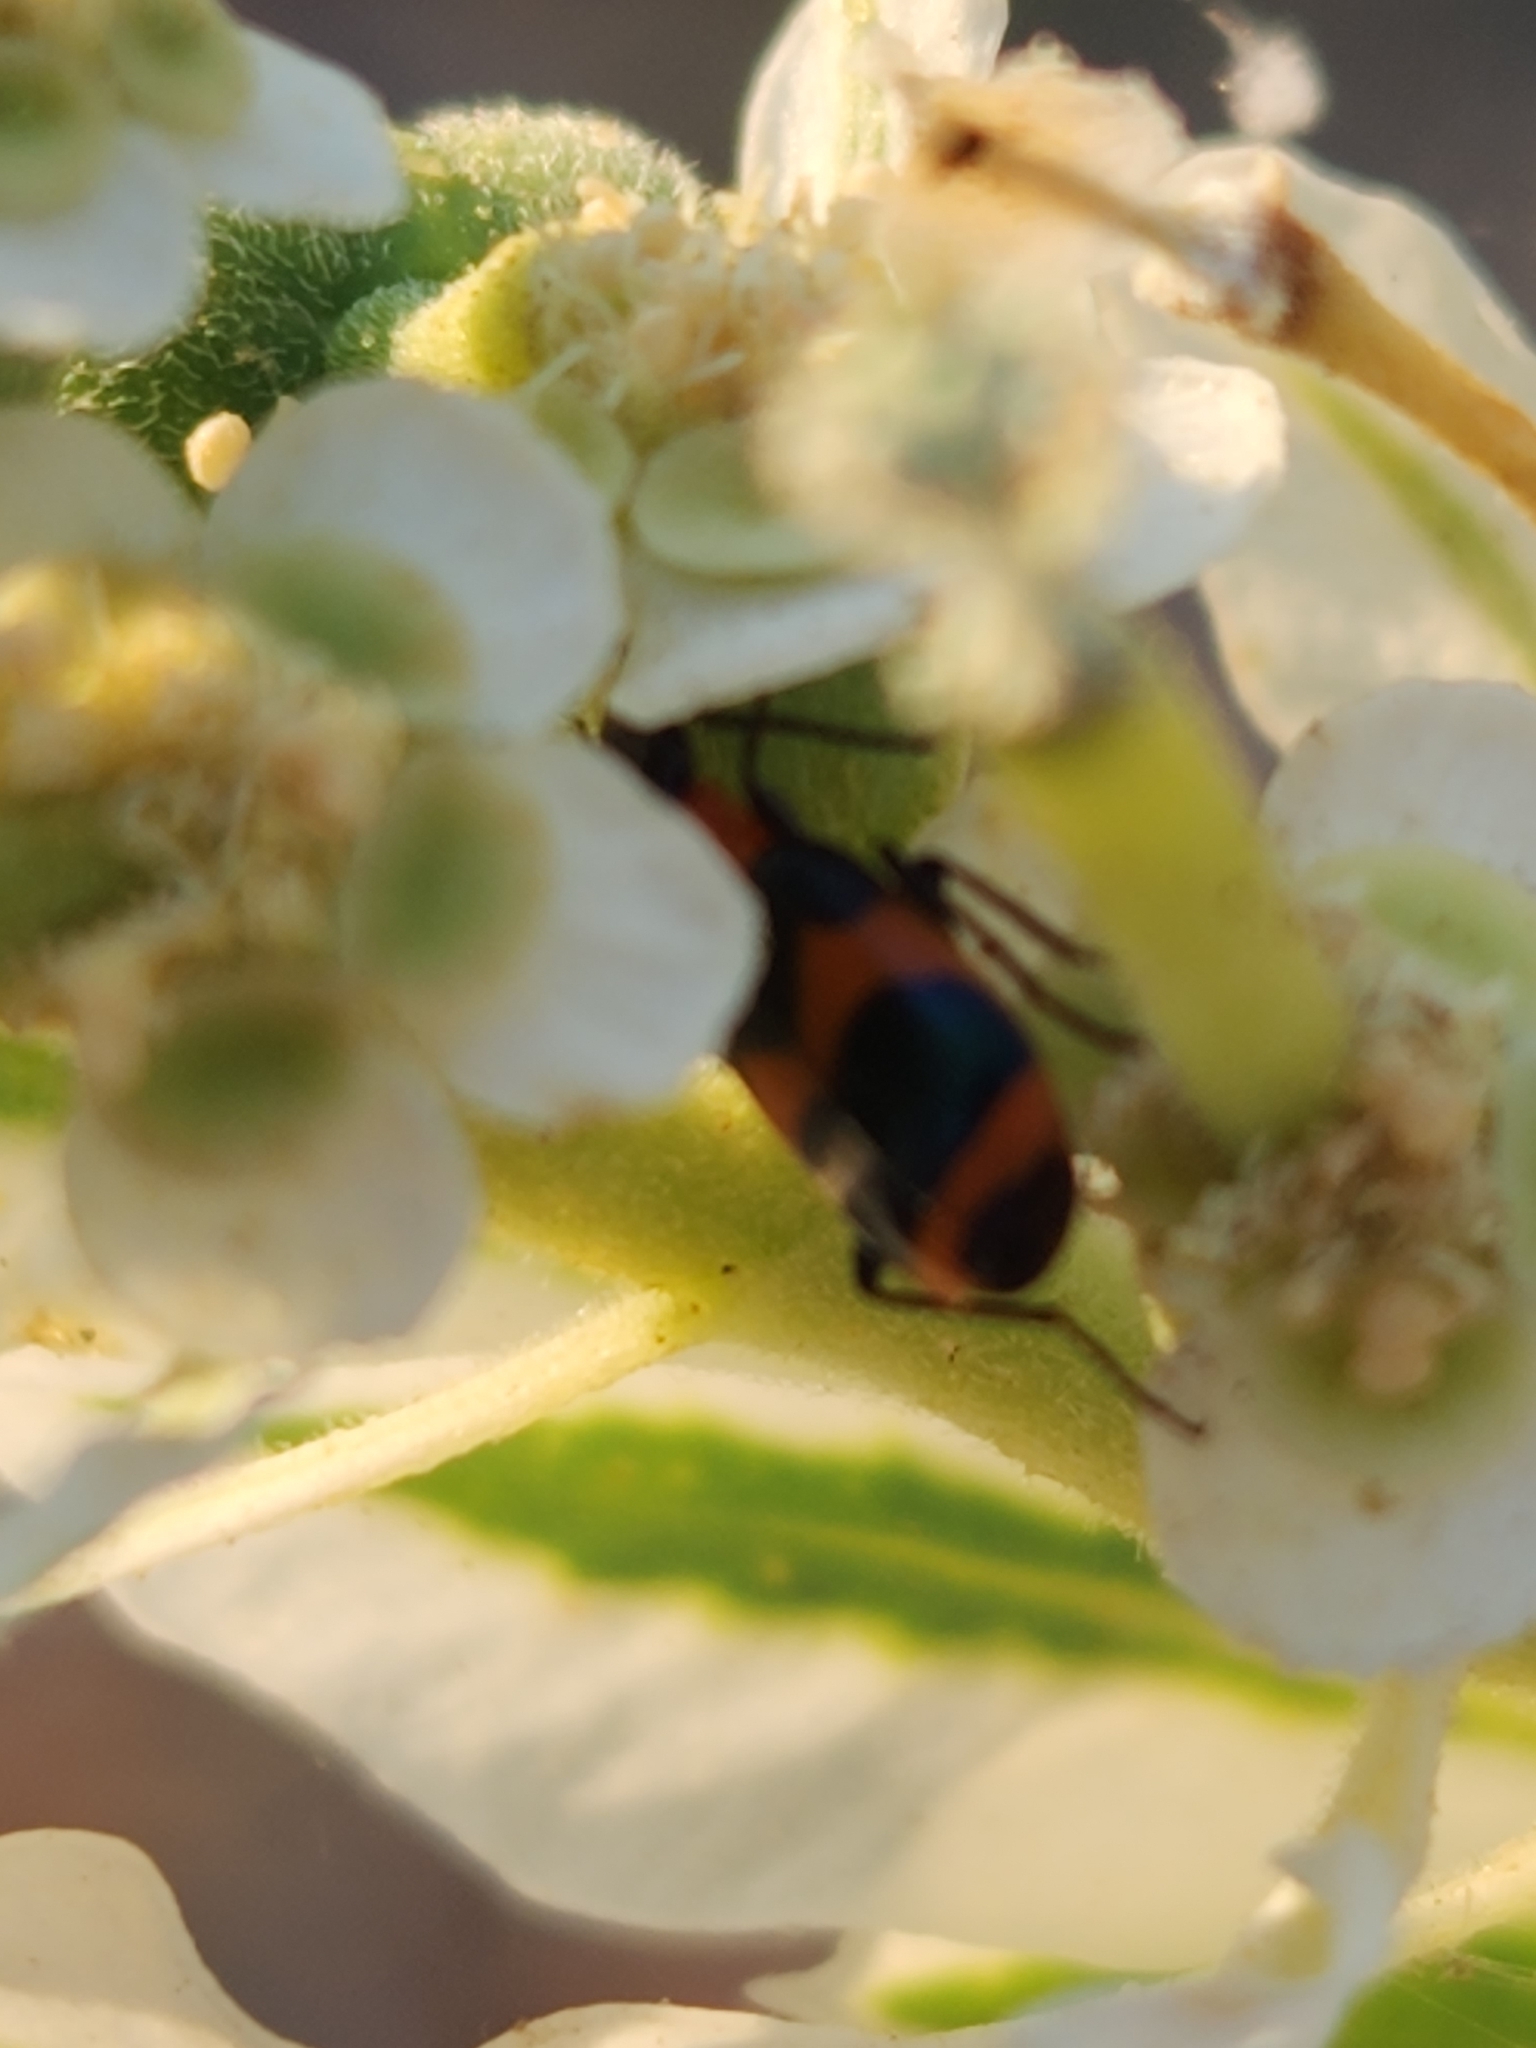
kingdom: Animalia
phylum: Arthropoda
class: Insecta
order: Coleoptera
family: Carabidae
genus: Lebia
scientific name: Lebia bitaeniata
